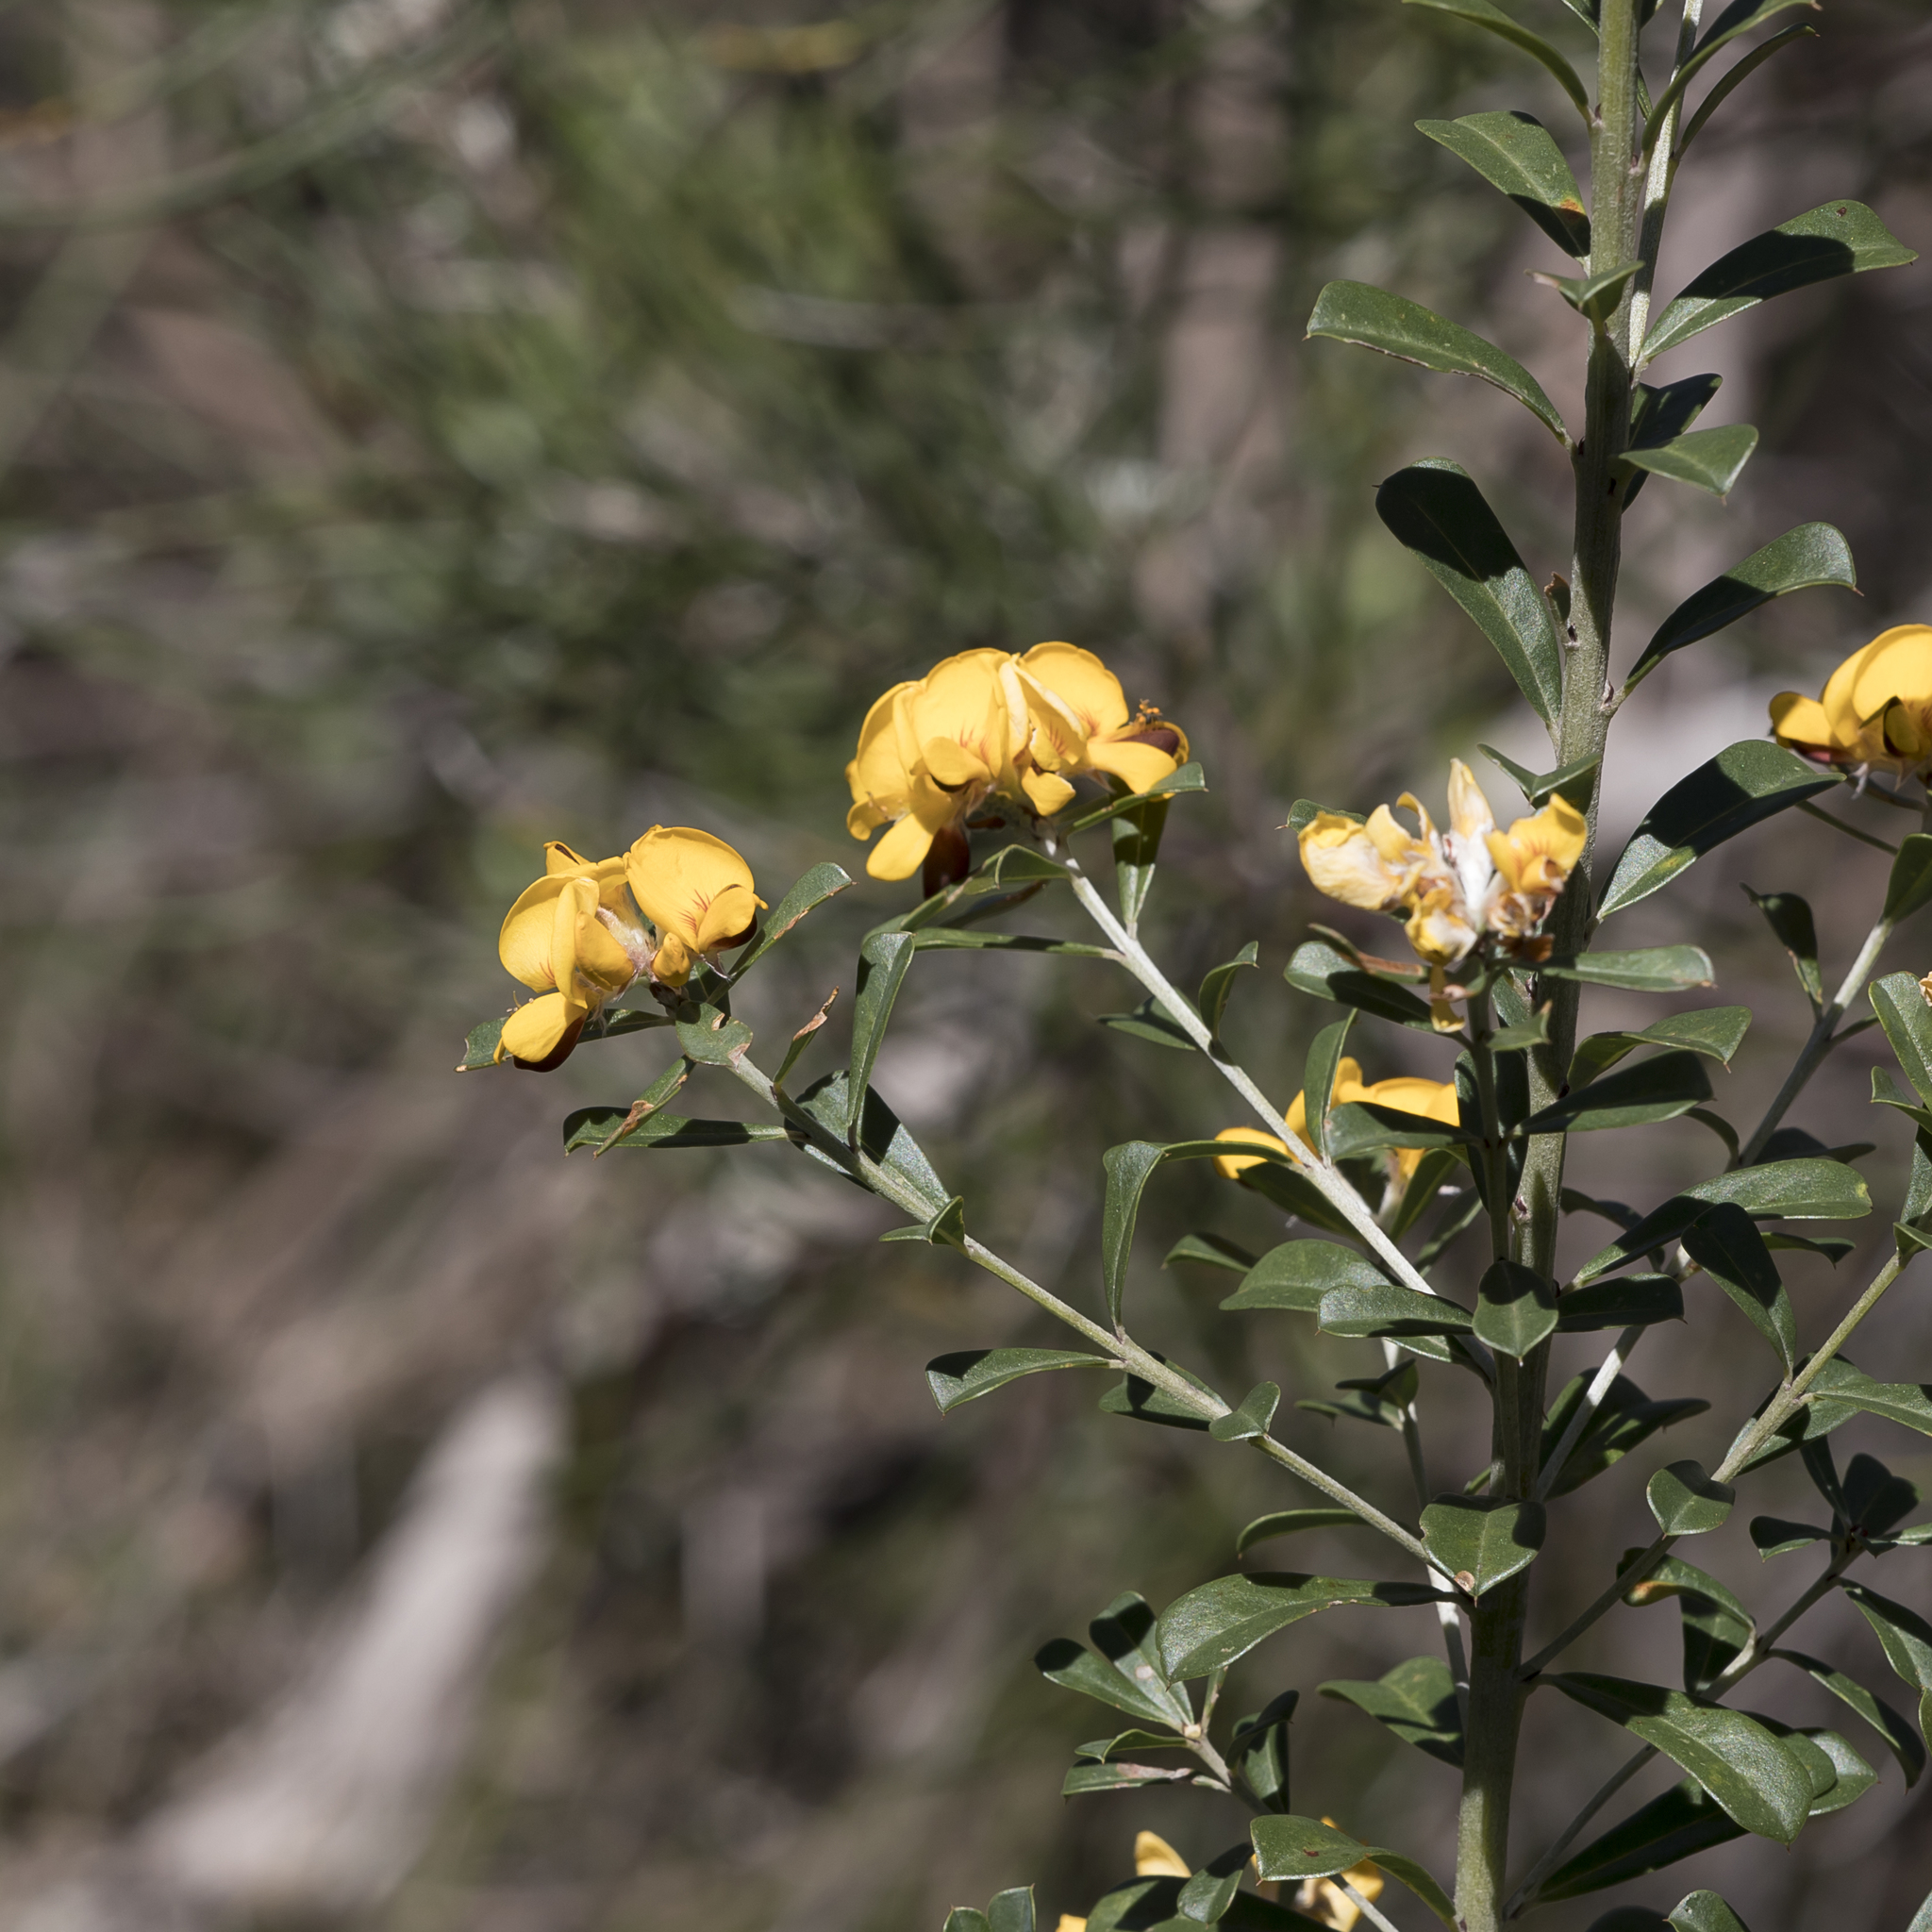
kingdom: Plantae
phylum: Tracheophyta
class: Magnoliopsida
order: Fabales
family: Fabaceae
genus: Pultenaea
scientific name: Pultenaea daphnoides
